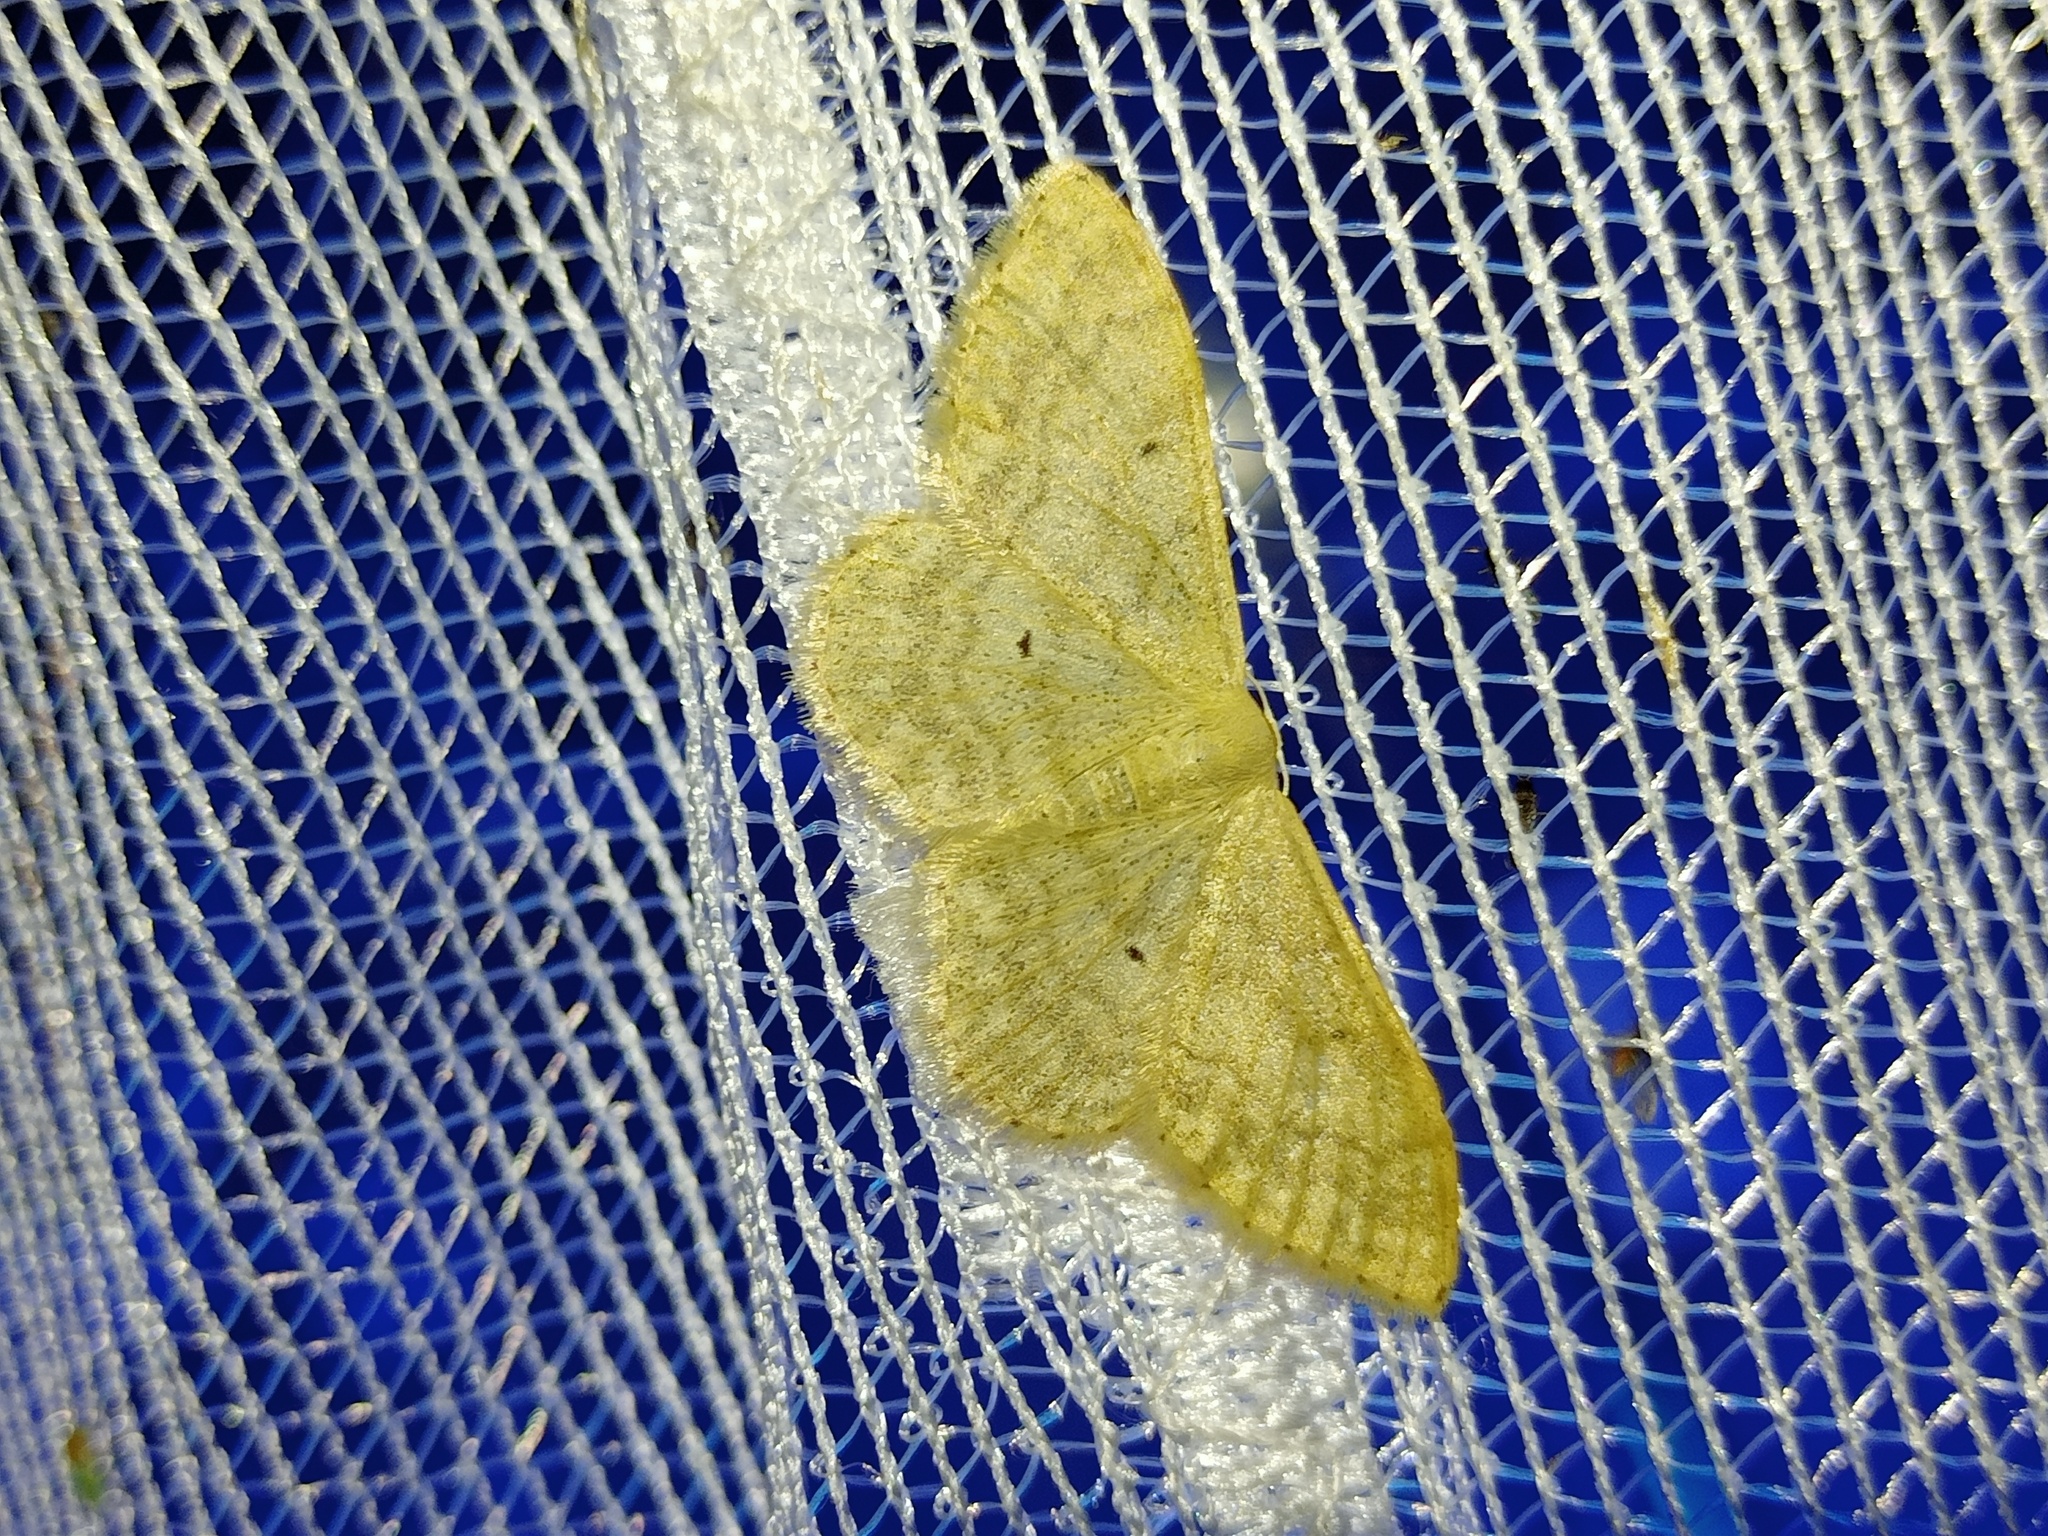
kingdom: Animalia
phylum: Arthropoda
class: Insecta
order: Lepidoptera
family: Geometridae
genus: Idaea
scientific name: Idaea maritimaria
